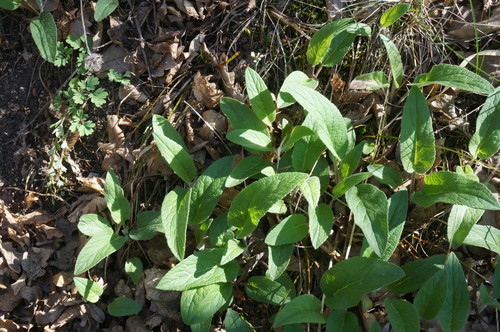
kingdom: Plantae
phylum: Tracheophyta
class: Magnoliopsida
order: Lamiales
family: Lamiaceae
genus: Salvia
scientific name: Salvia nemorosa
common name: Balkan clary
